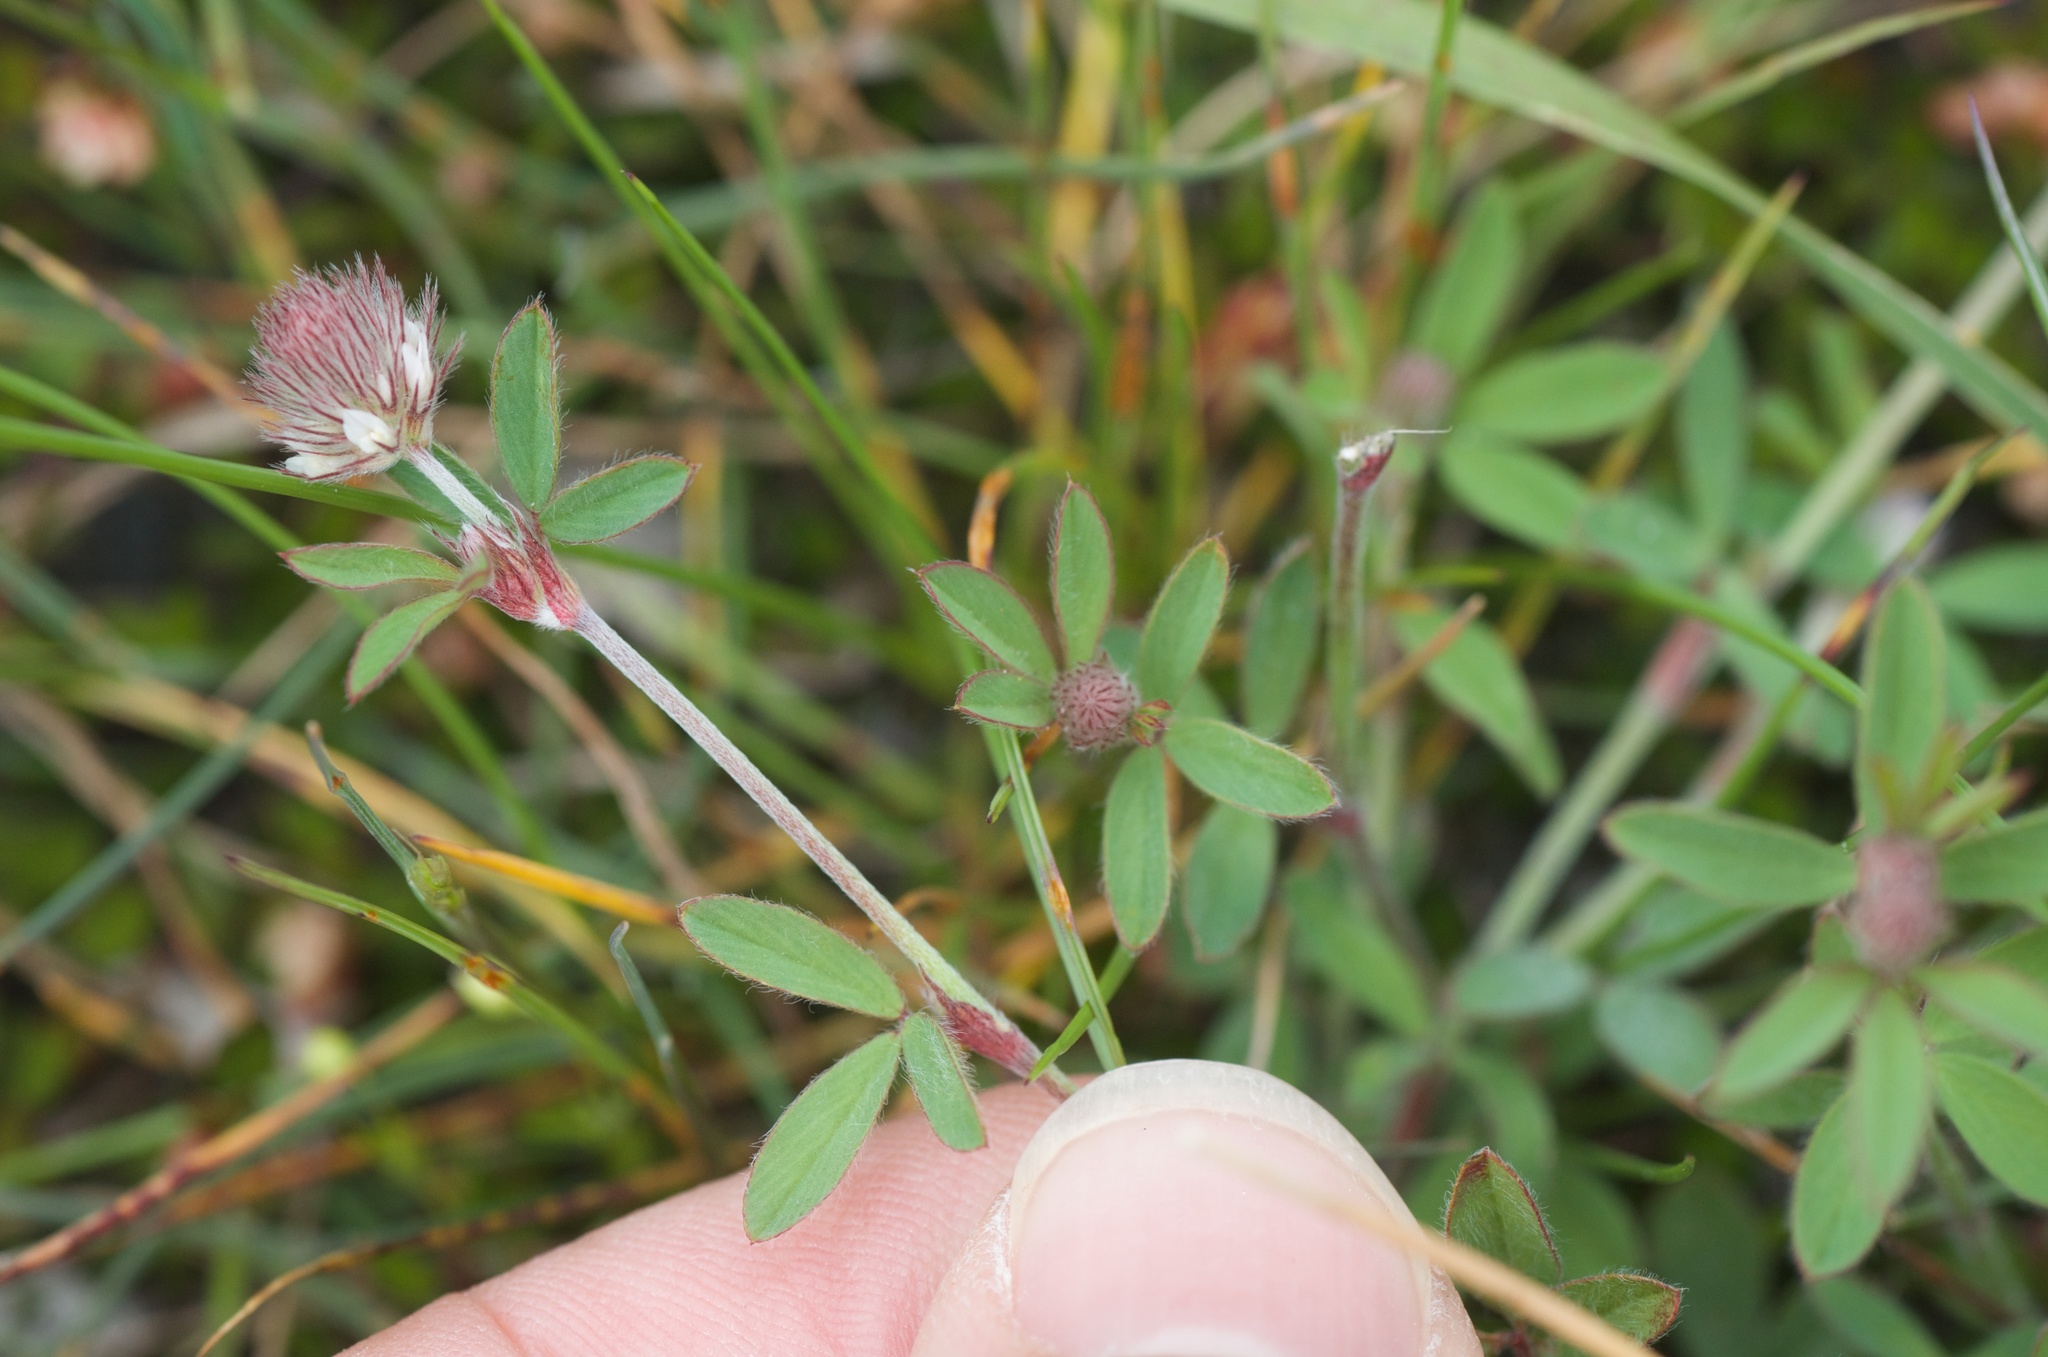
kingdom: Plantae
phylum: Tracheophyta
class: Magnoliopsida
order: Fabales
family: Fabaceae
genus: Trifolium
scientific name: Trifolium arvense
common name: Hare's-foot clover
